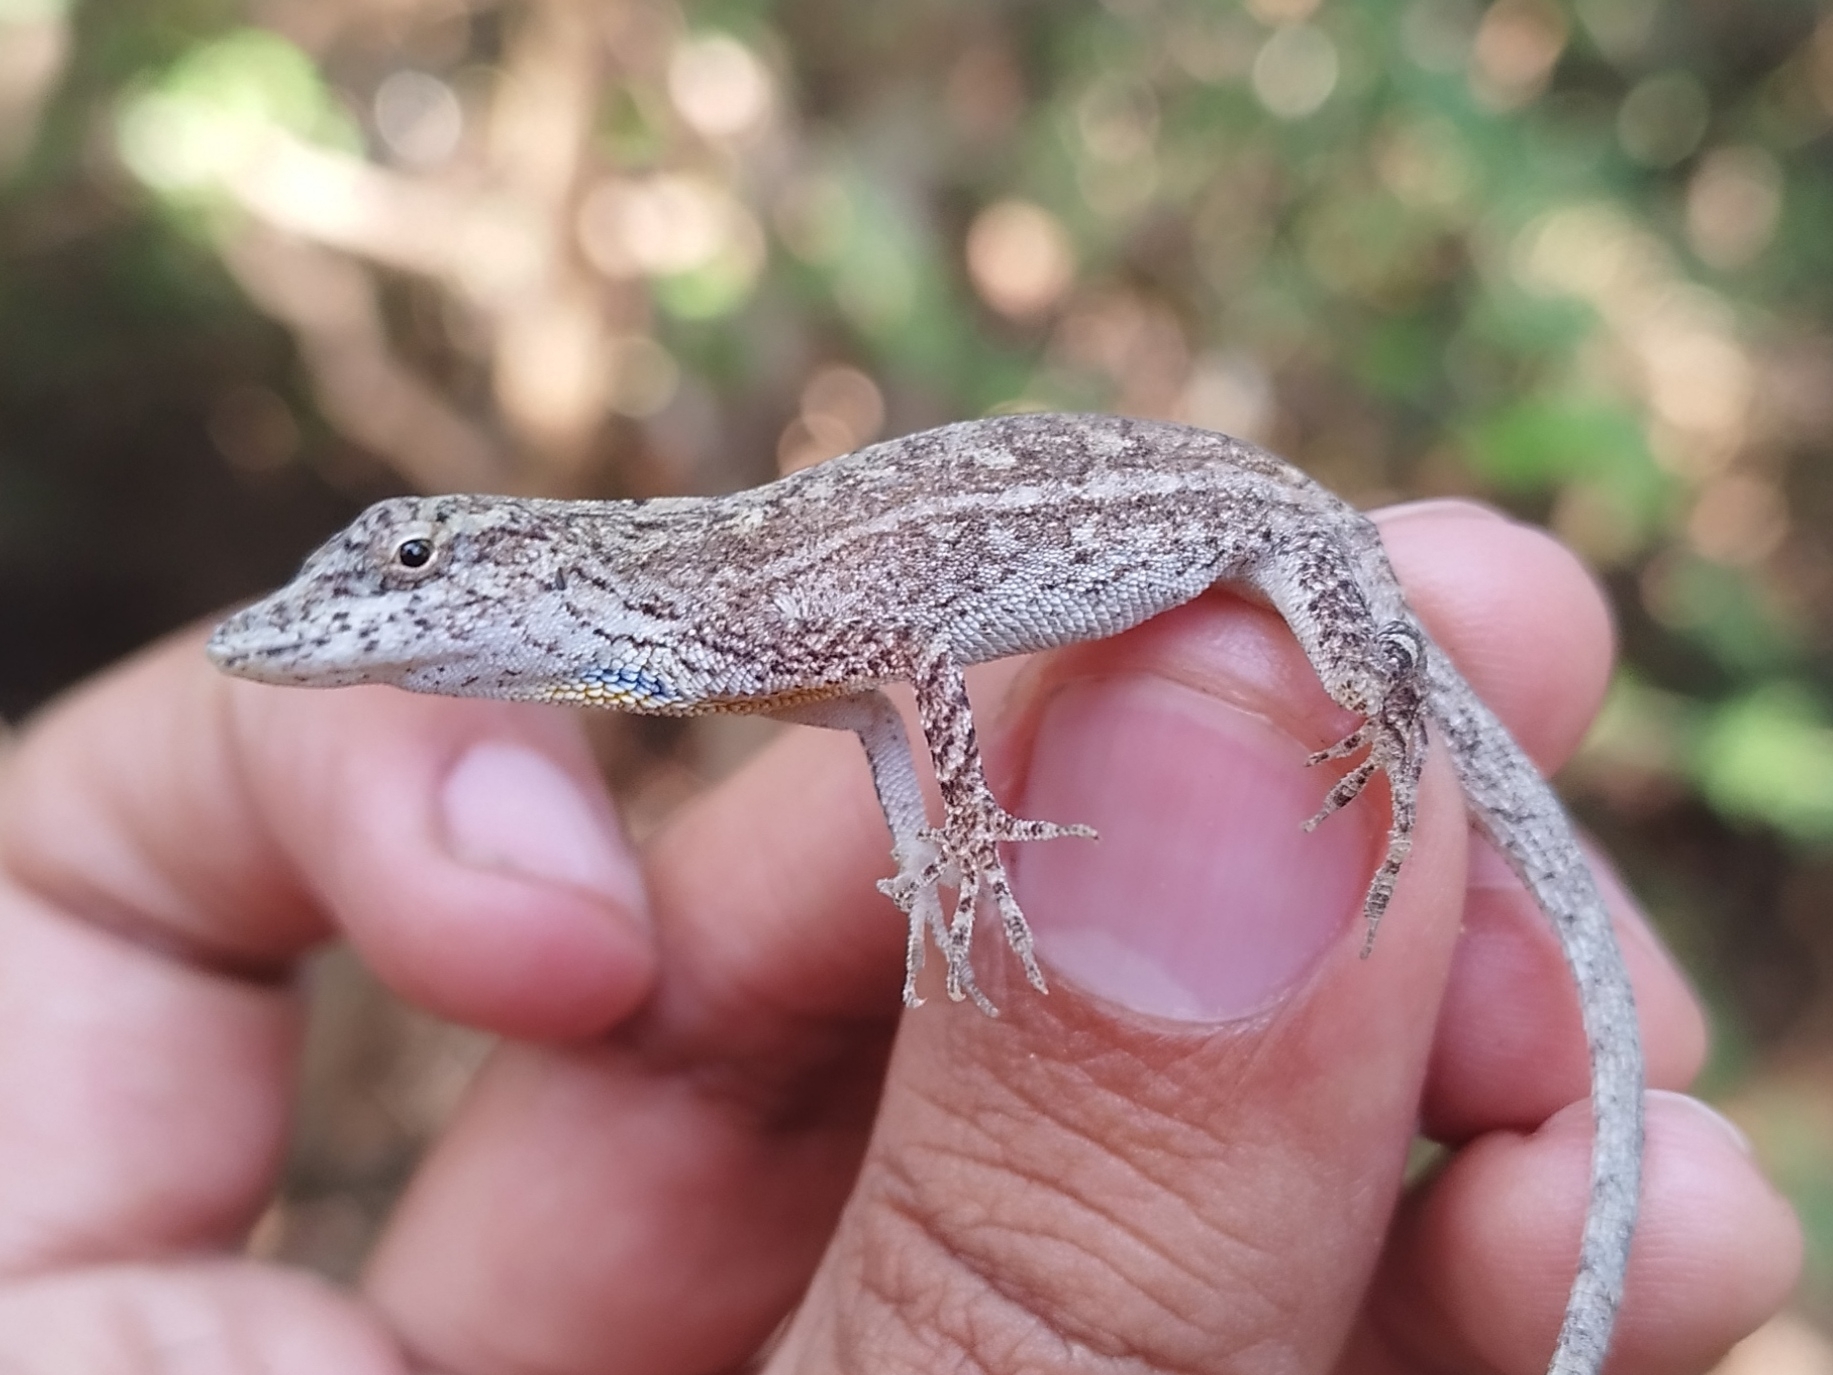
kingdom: Animalia
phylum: Chordata
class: Squamata
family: Dactyloidae
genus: Anolis
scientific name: Anolis unilobatus
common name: Blue-spotted fan anole
